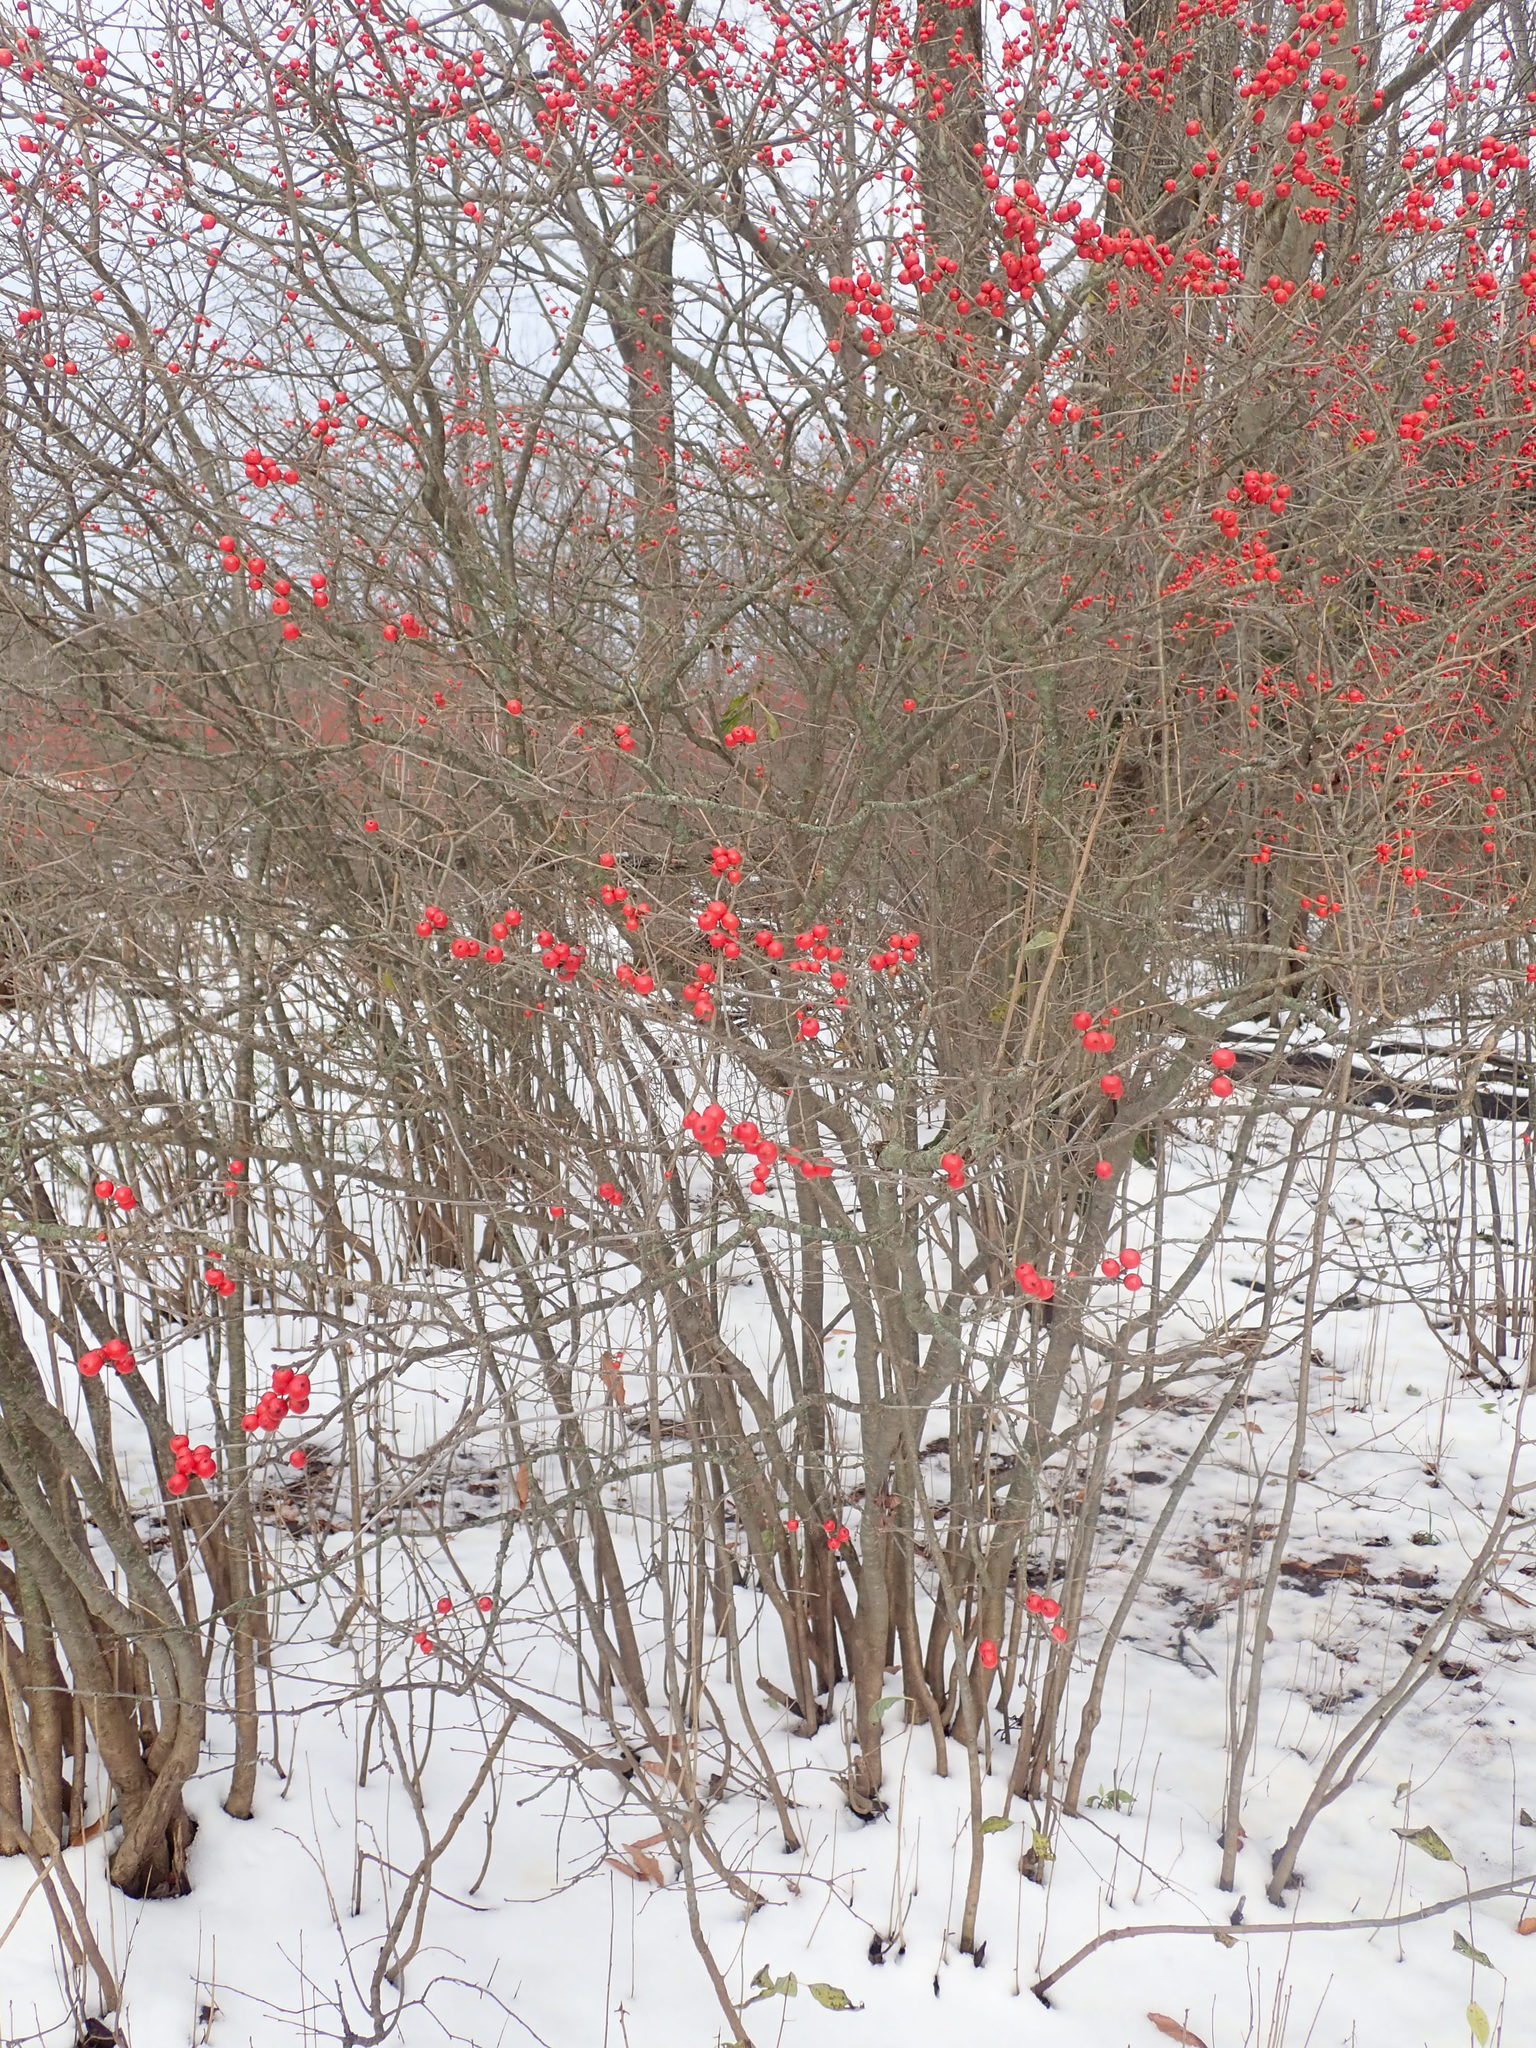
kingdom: Plantae
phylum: Tracheophyta
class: Magnoliopsida
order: Aquifoliales
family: Aquifoliaceae
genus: Ilex
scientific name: Ilex verticillata
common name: Virginia winterberry
